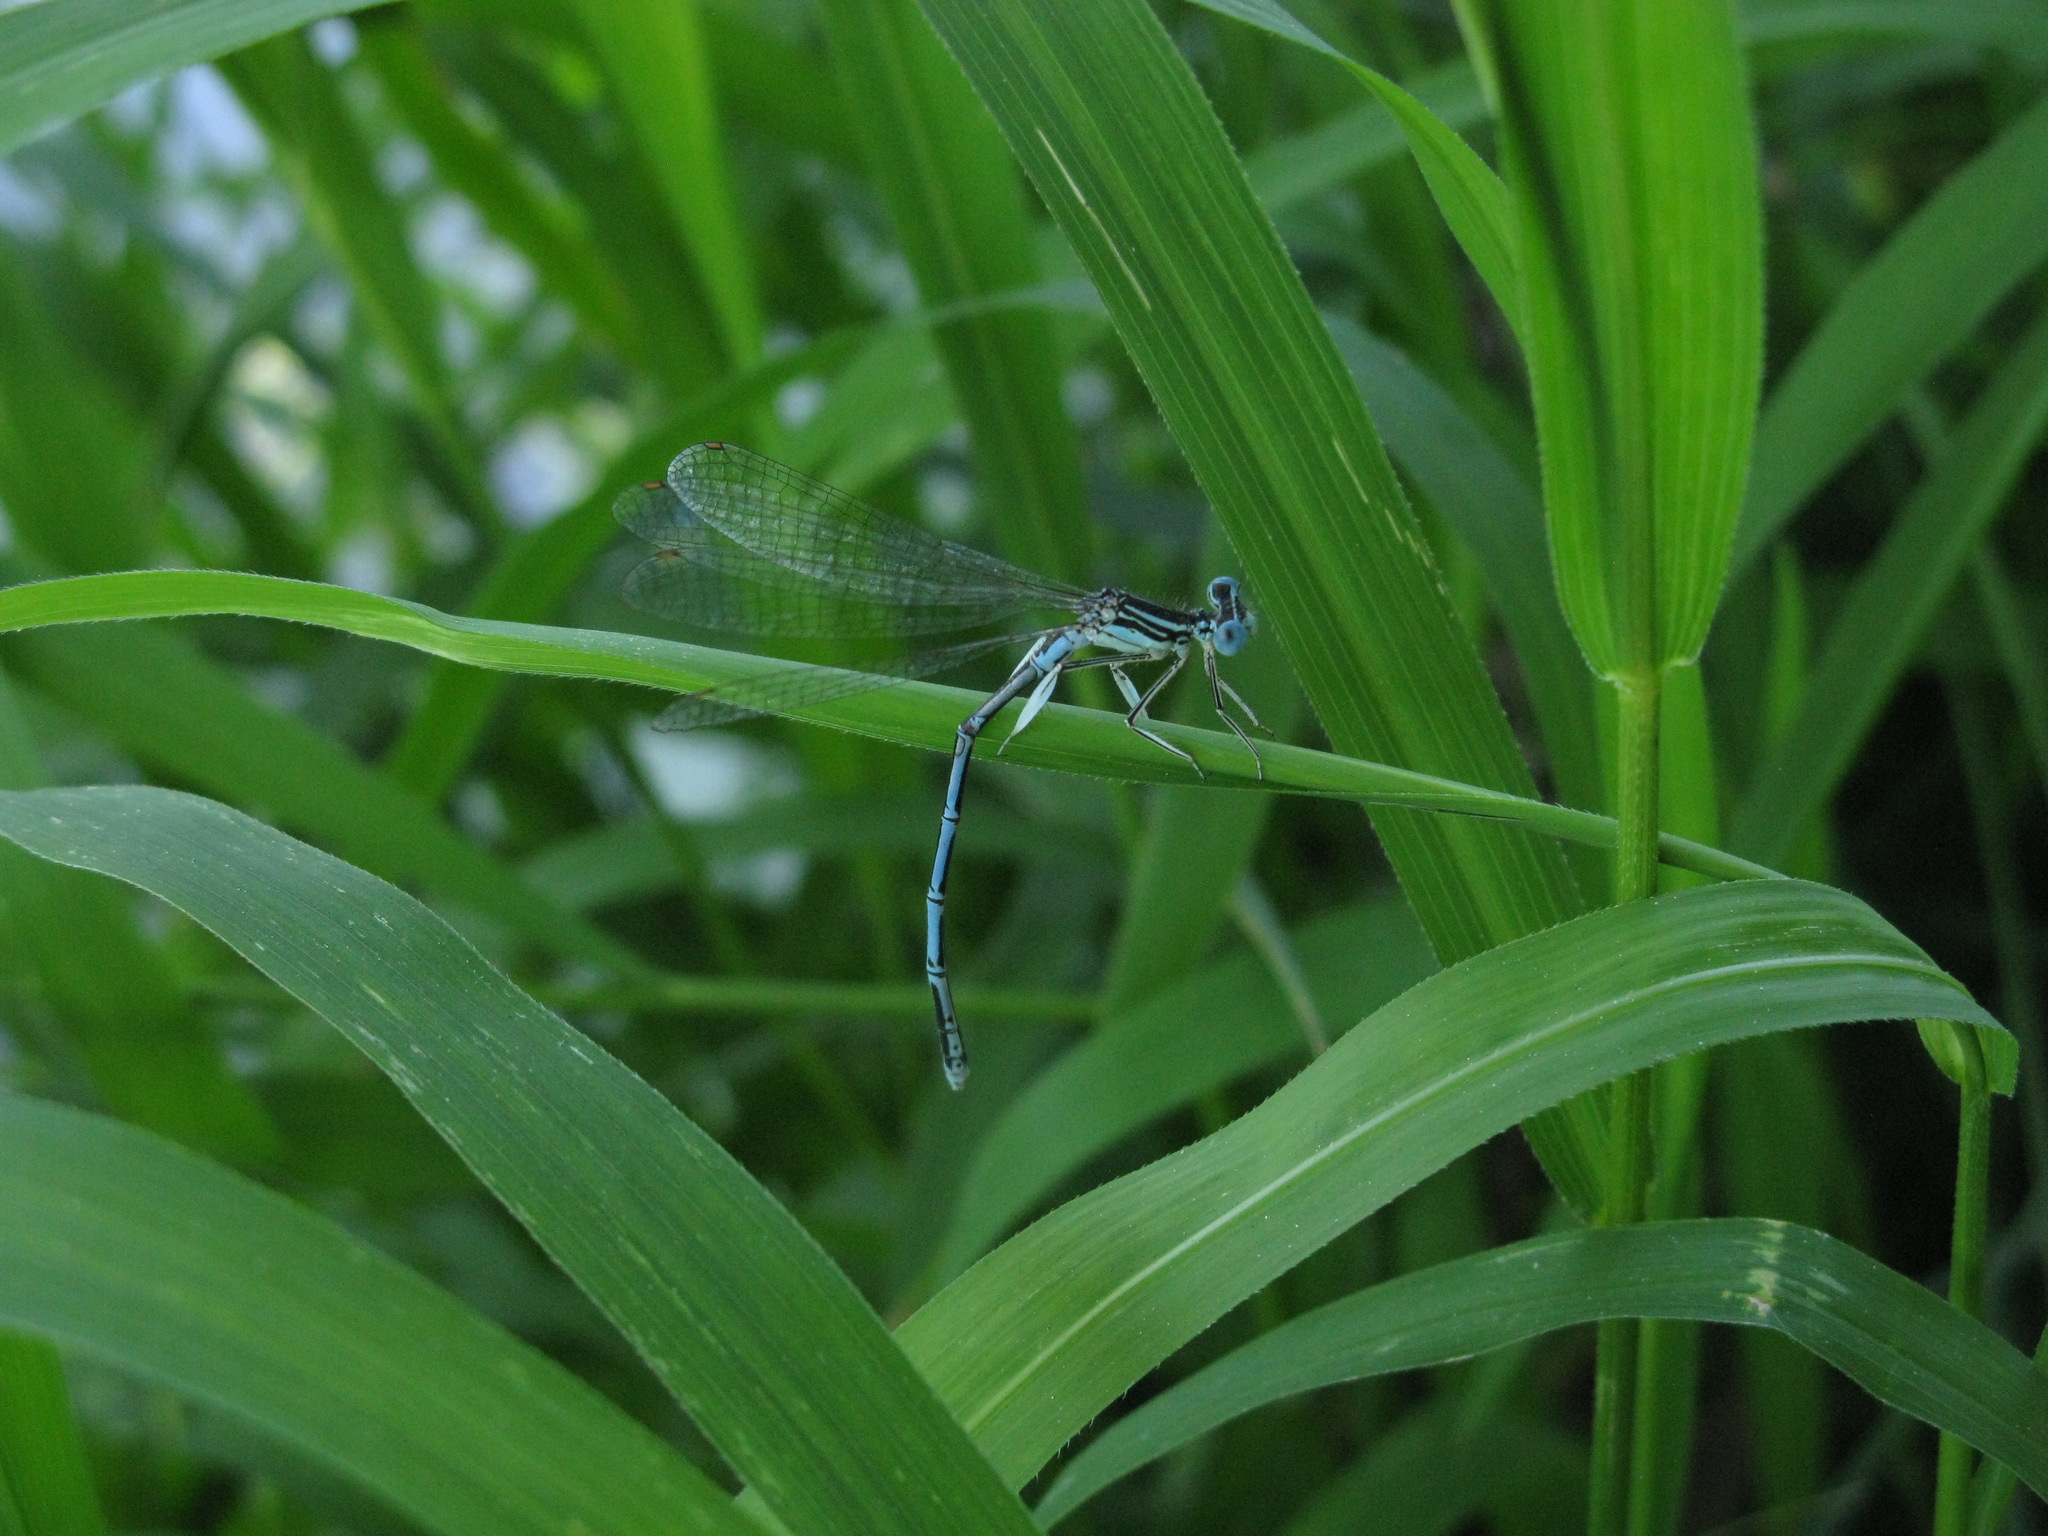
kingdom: Animalia
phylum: Arthropoda
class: Insecta
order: Odonata
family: Platycnemididae
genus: Platycnemis
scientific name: Platycnemis pennipes
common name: White-legged damselfly
